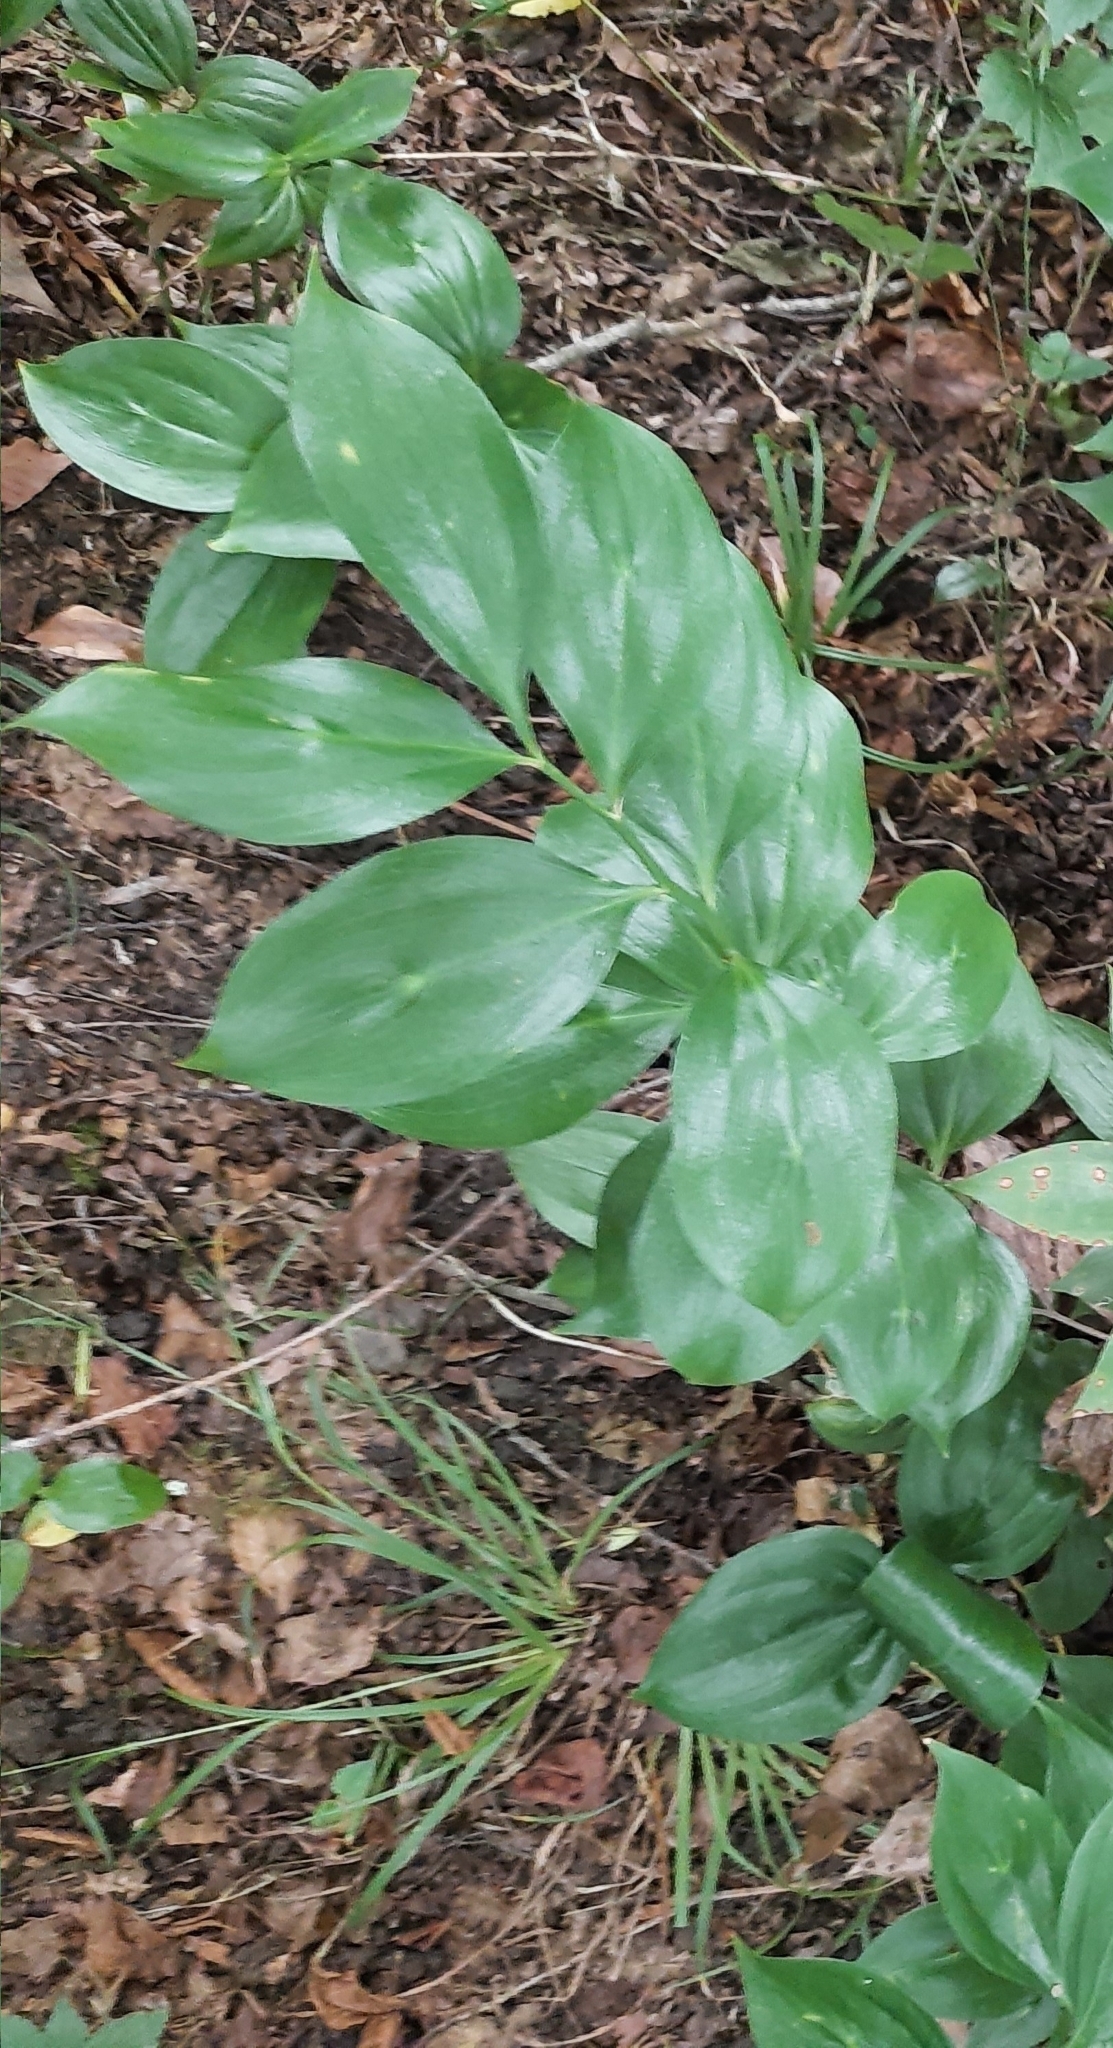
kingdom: Plantae
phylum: Tracheophyta
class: Liliopsida
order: Asparagales
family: Asparagaceae
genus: Ruscus
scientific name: Ruscus colchicus
